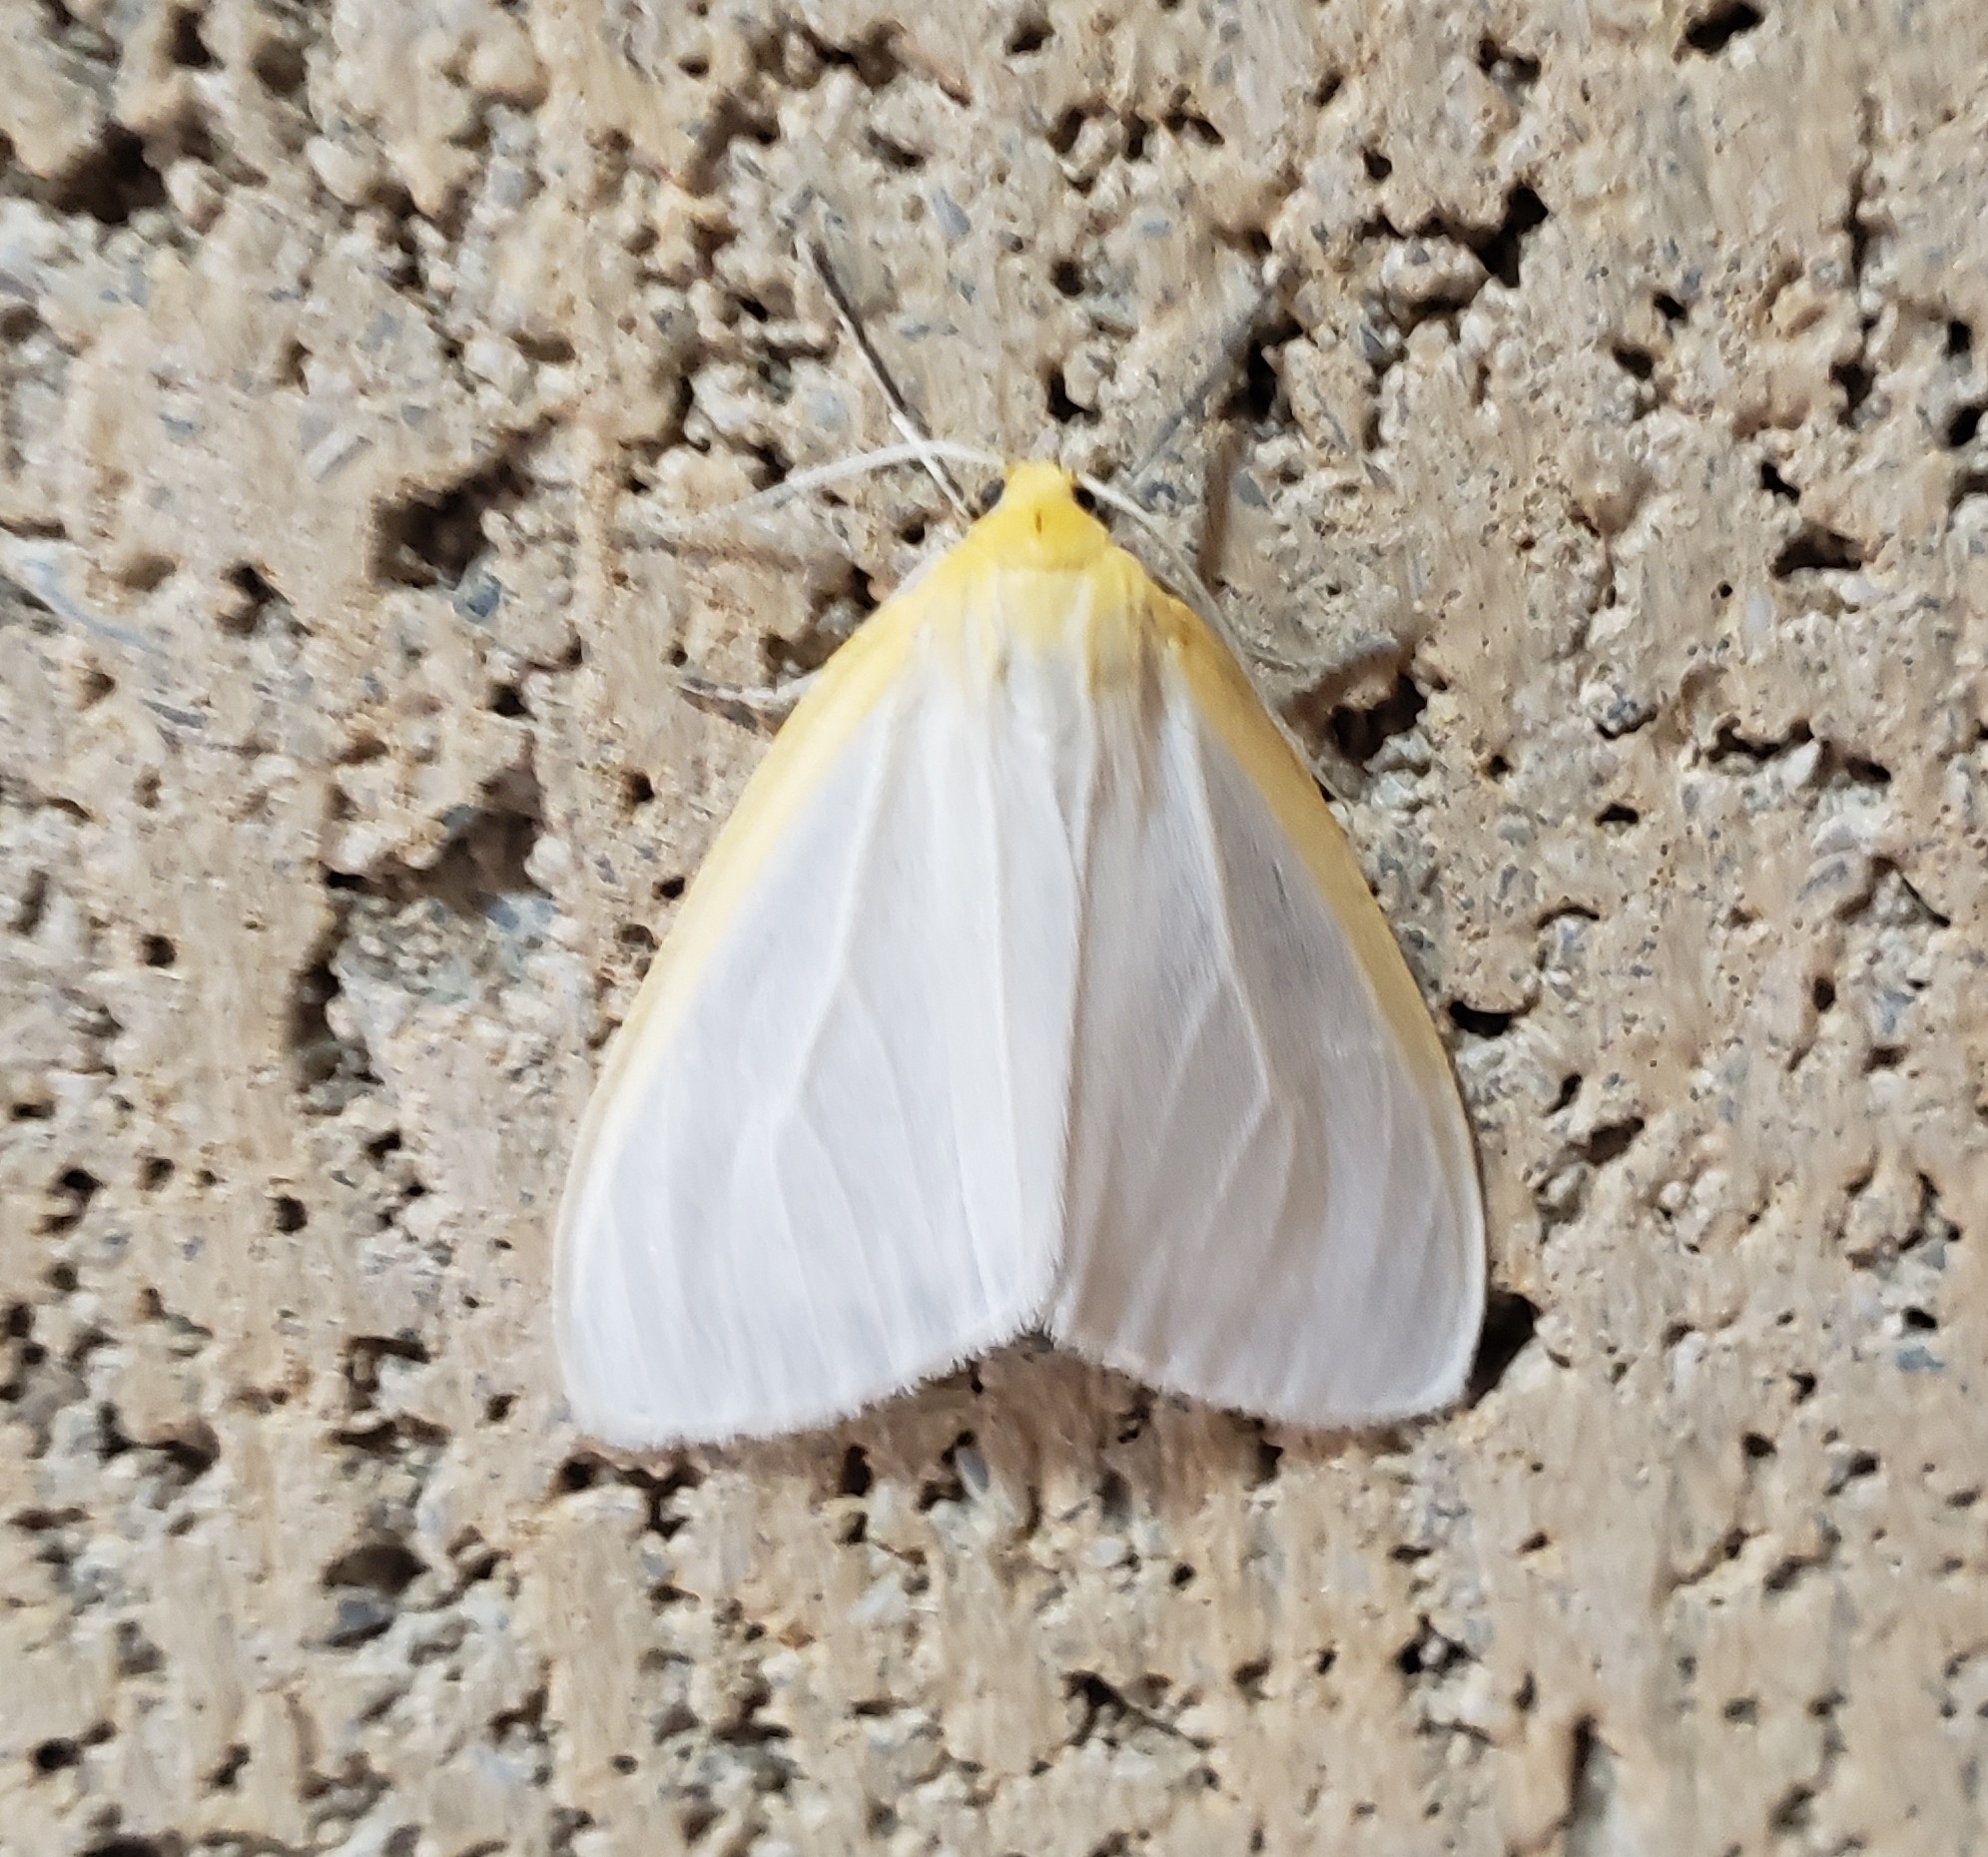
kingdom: Animalia
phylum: Arthropoda
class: Insecta
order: Lepidoptera
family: Erebidae
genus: Cycnia
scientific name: Cycnia tenera
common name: Delicate cycnia moth
